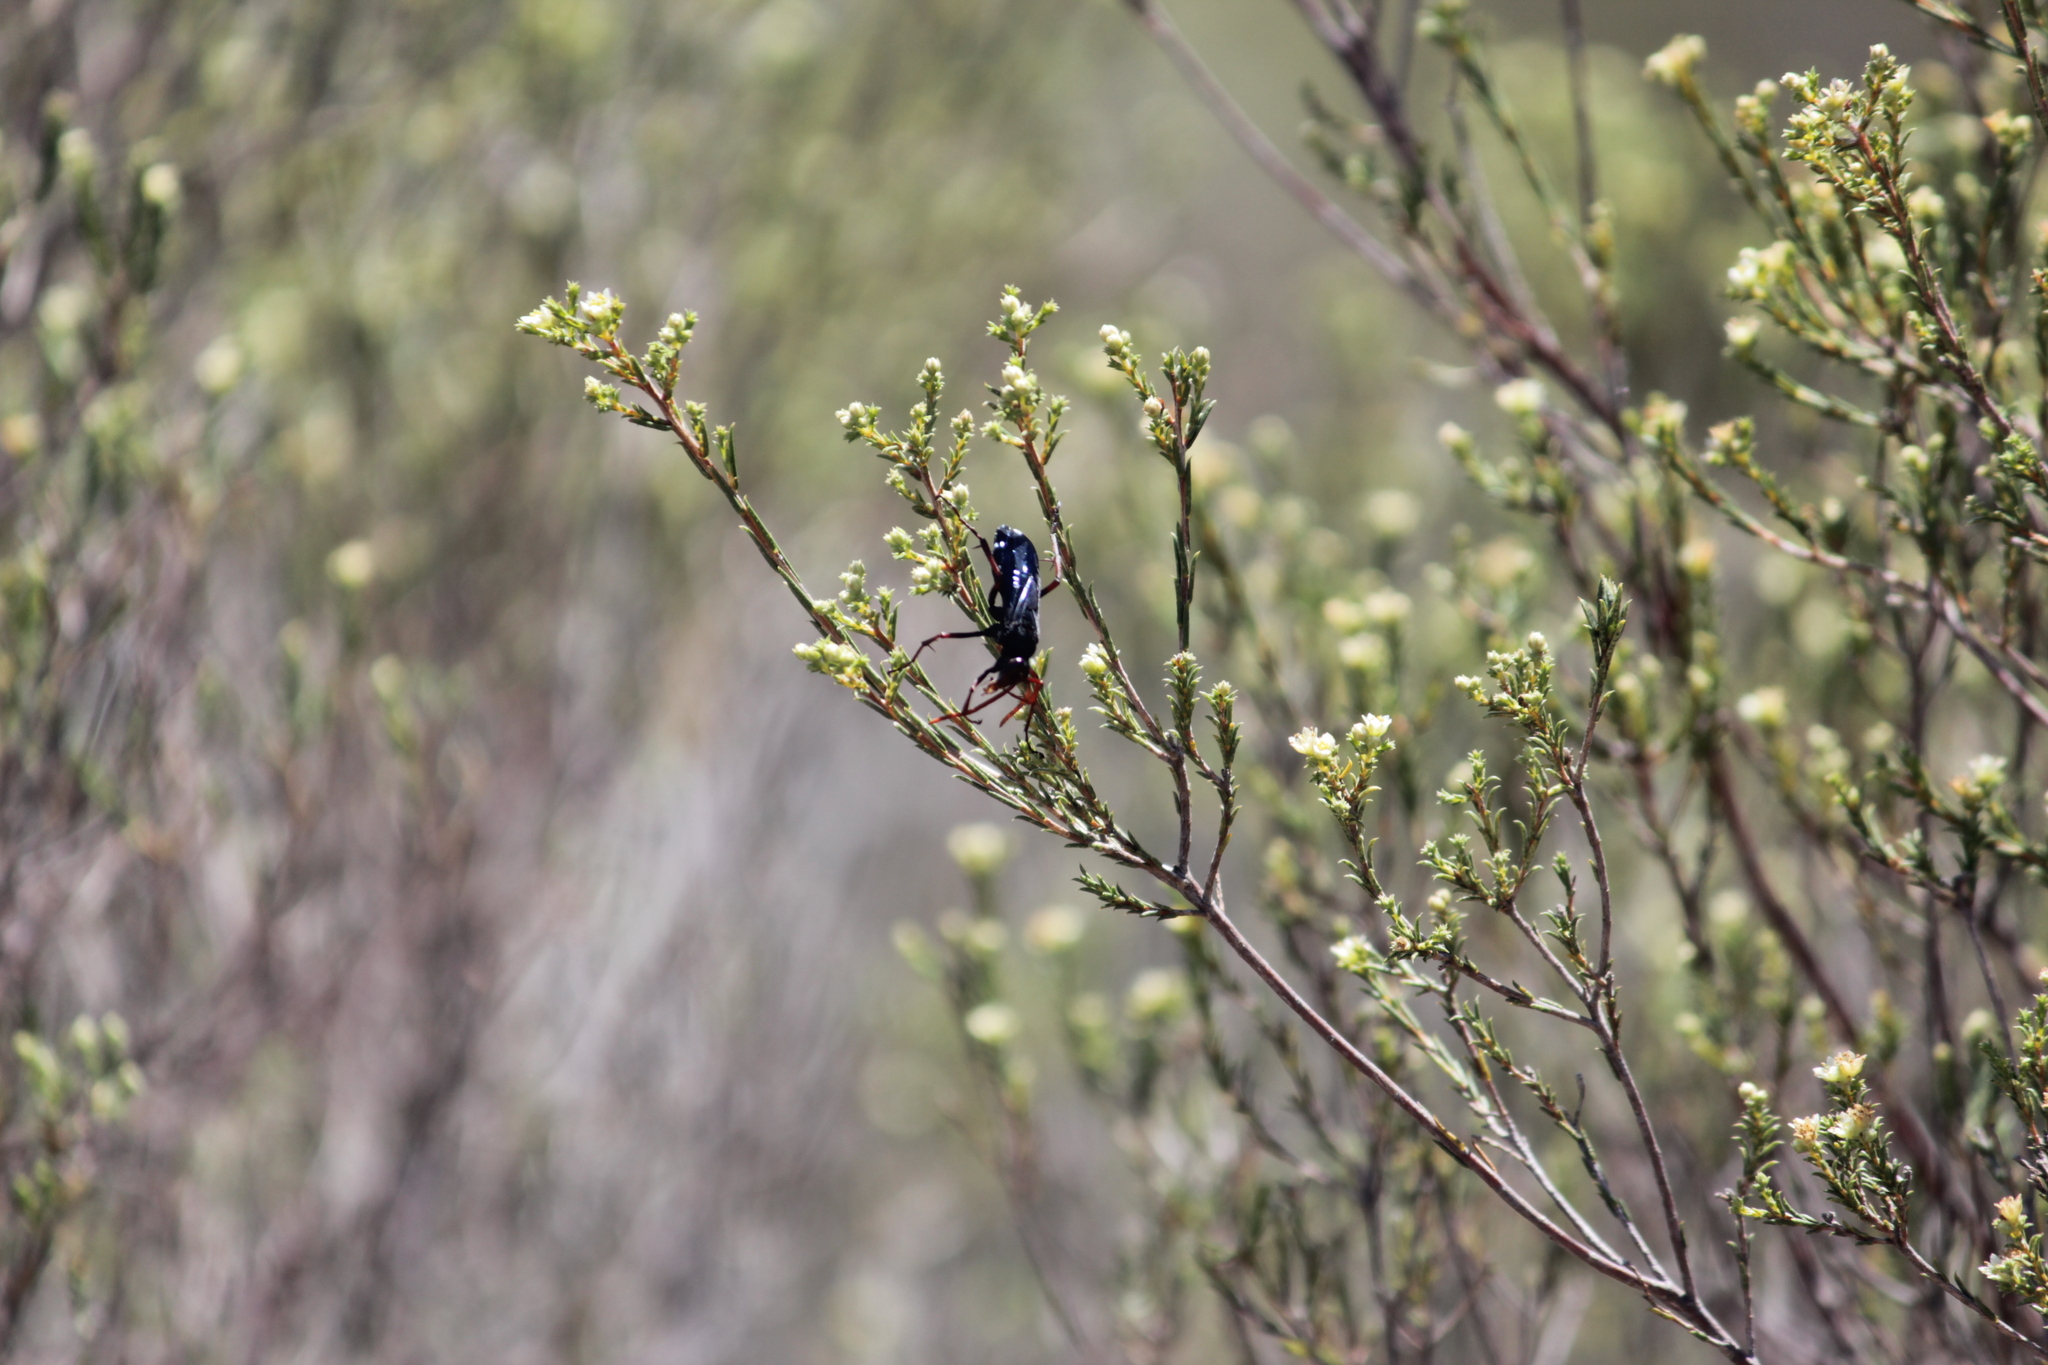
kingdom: Plantae
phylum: Tracheophyta
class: Magnoliopsida
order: Sapindales
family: Rutaceae
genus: Diosma
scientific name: Diosma aspalathoides
